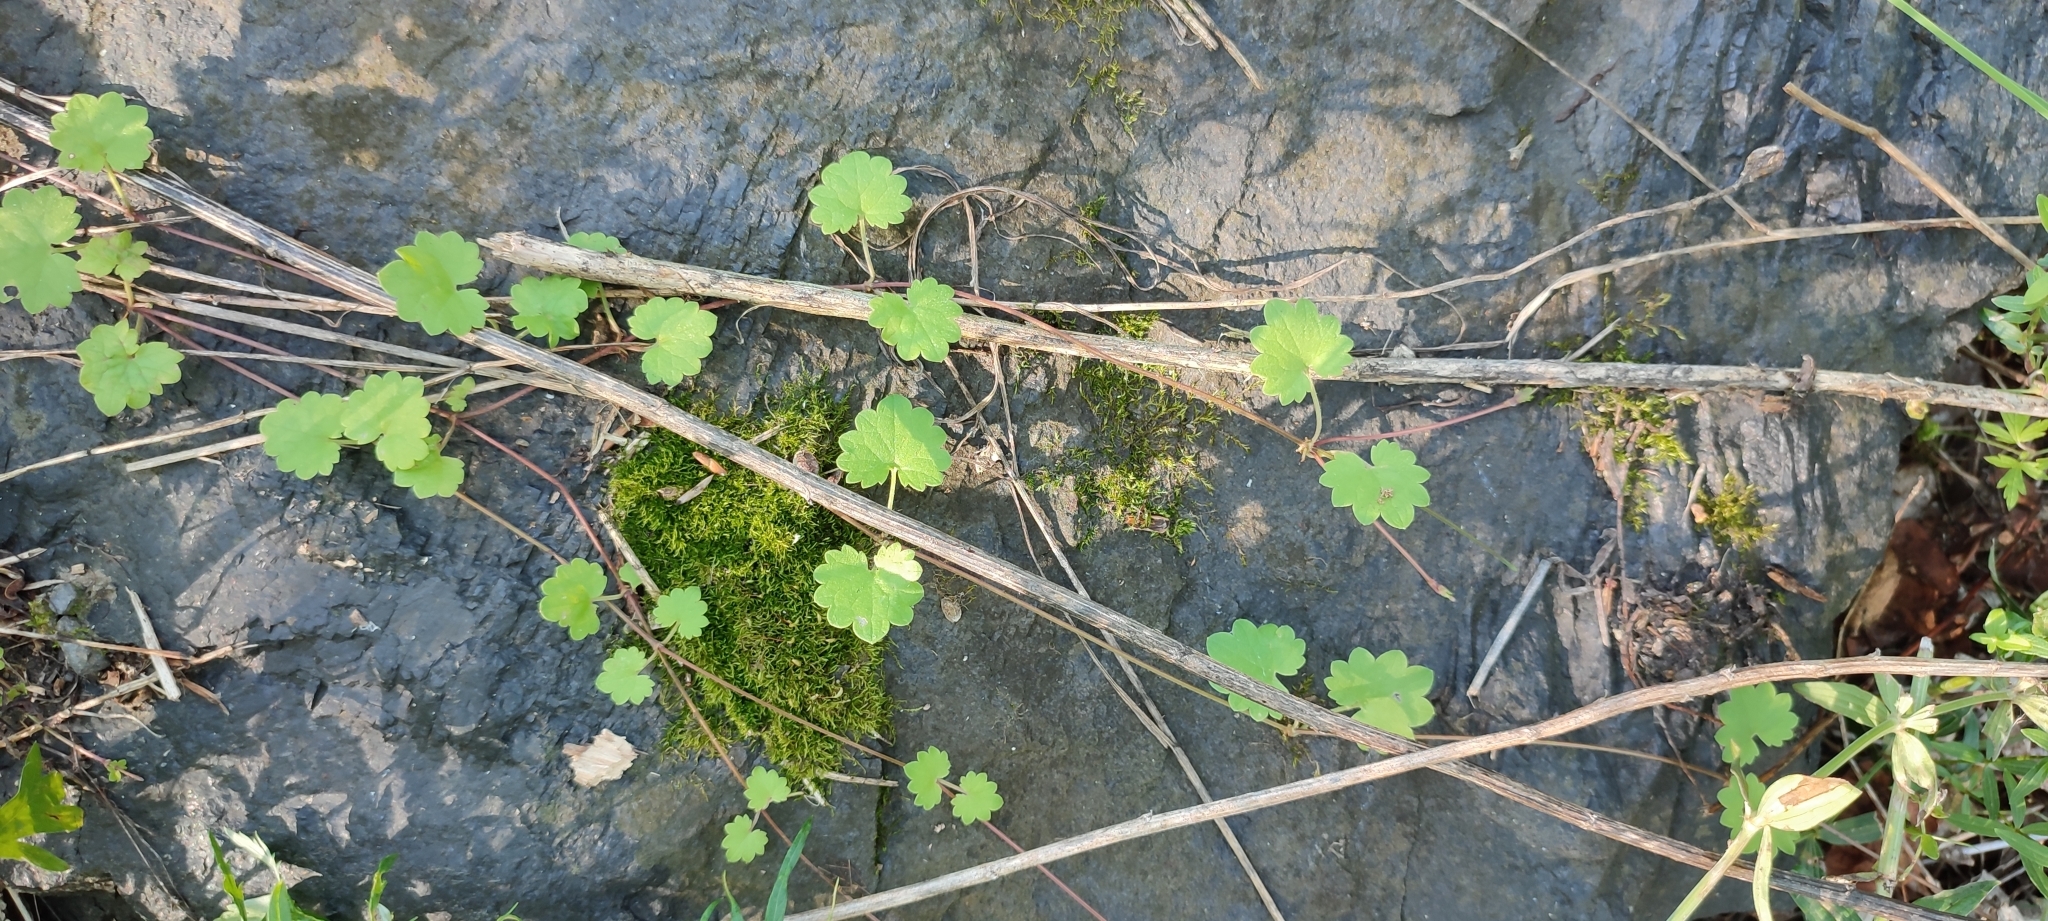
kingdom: Plantae
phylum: Tracheophyta
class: Magnoliopsida
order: Lamiales
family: Lamiaceae
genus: Glechoma
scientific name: Glechoma hederacea
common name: Ground ivy
